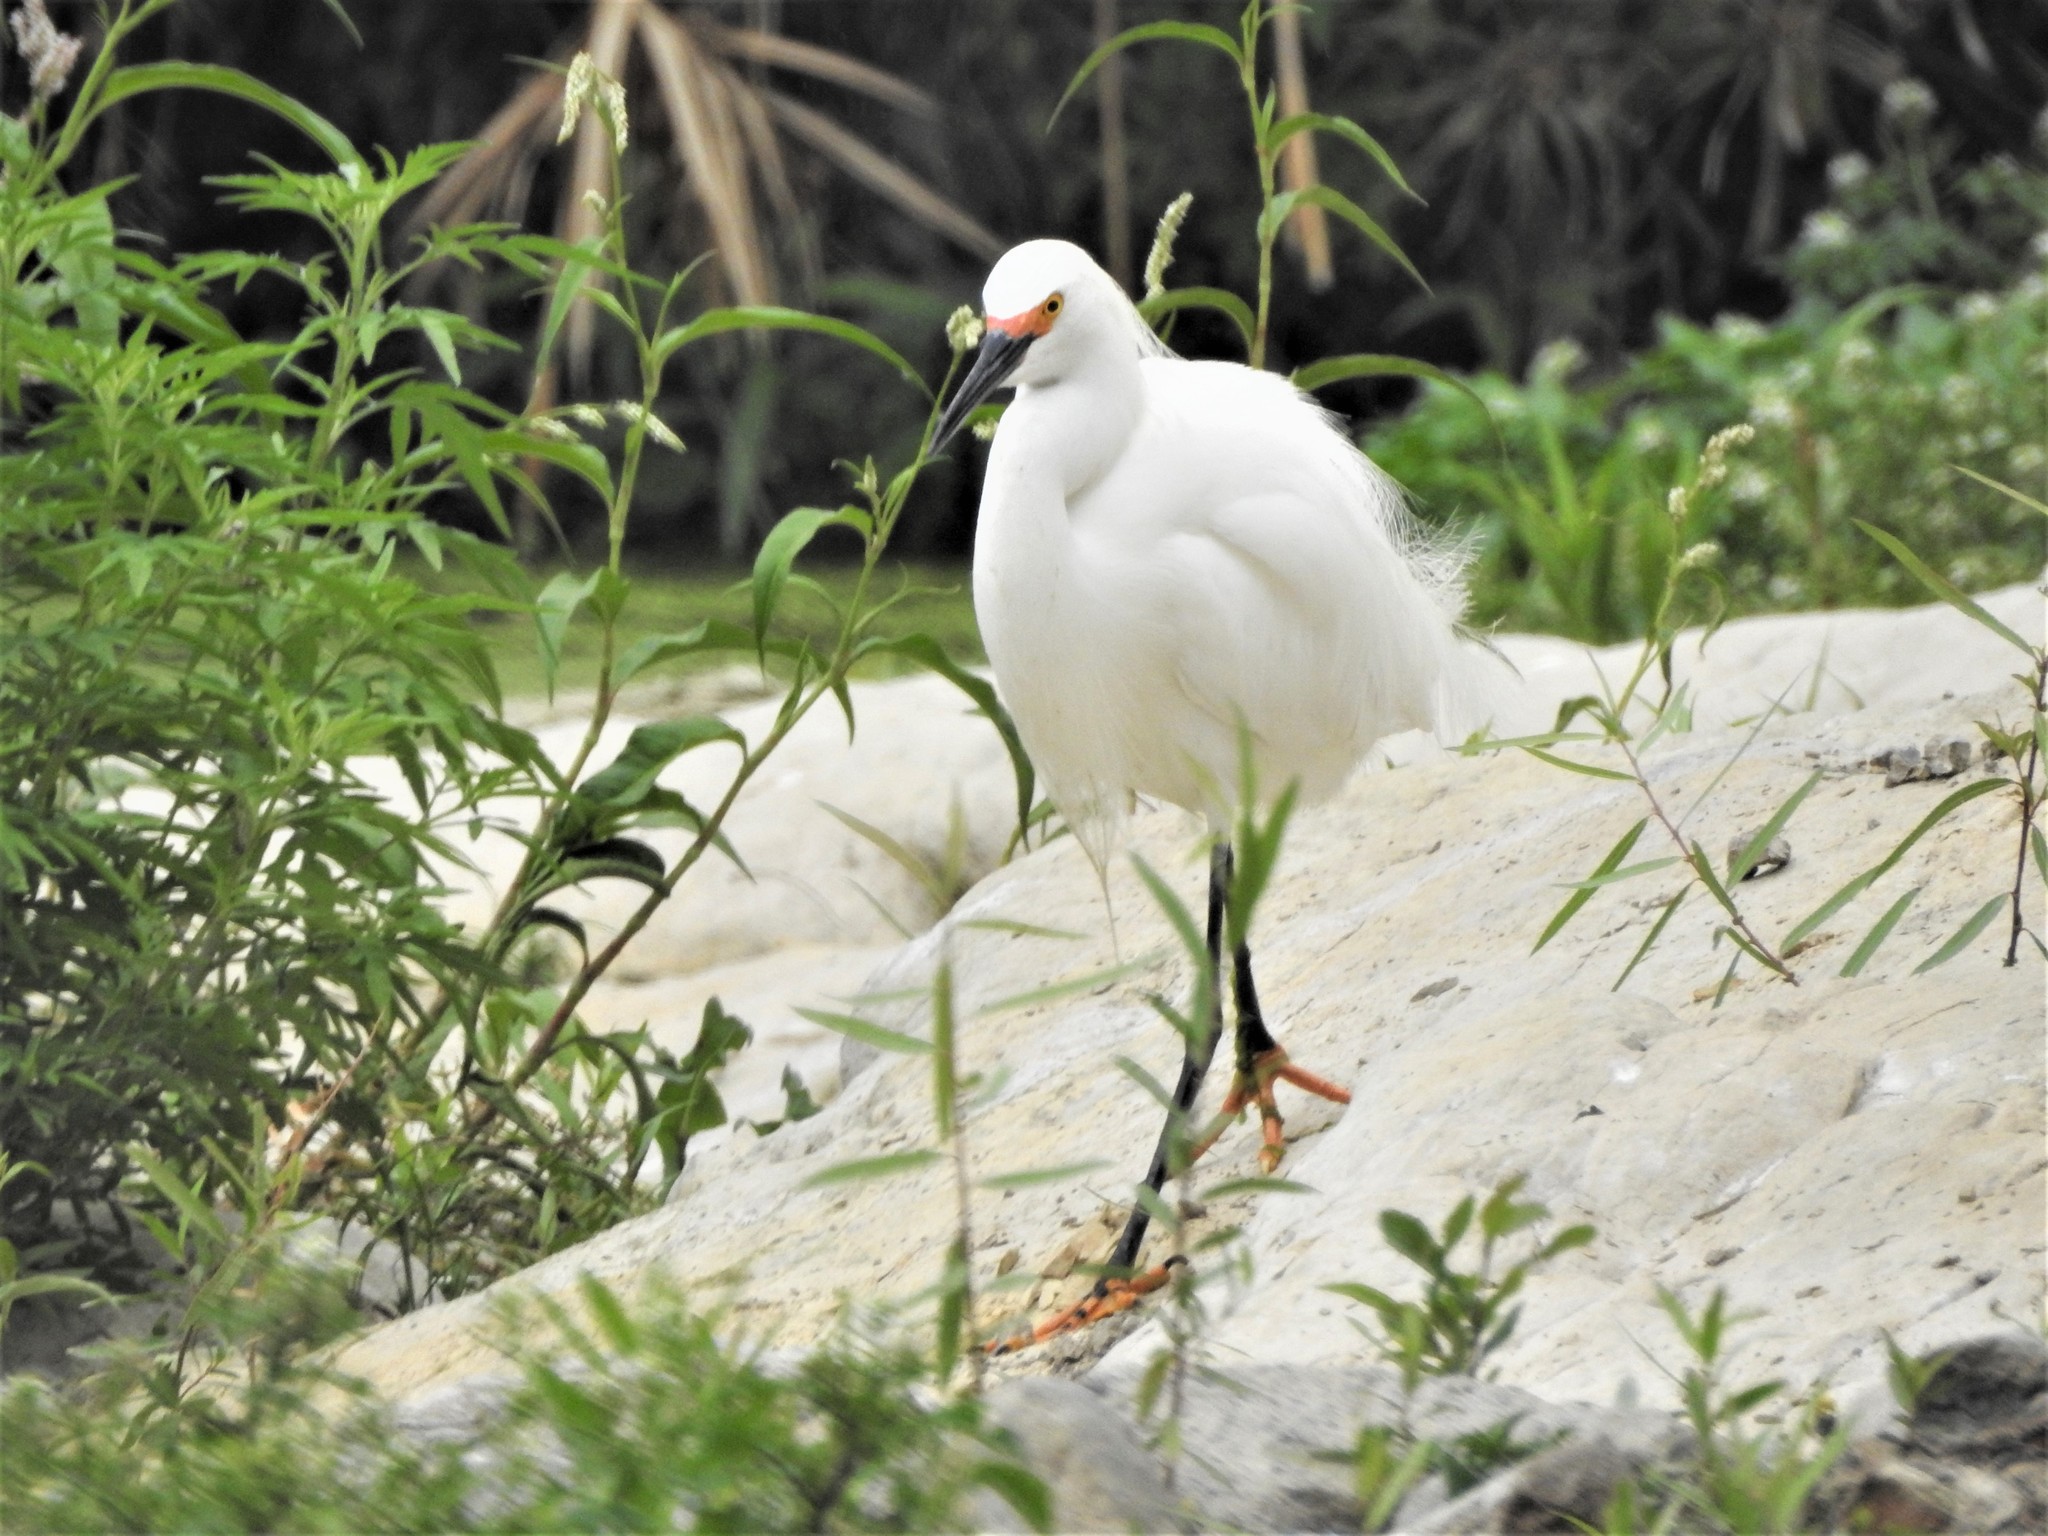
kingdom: Animalia
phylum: Chordata
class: Aves
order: Pelecaniformes
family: Ardeidae
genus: Egretta
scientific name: Egretta thula
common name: Snowy egret
